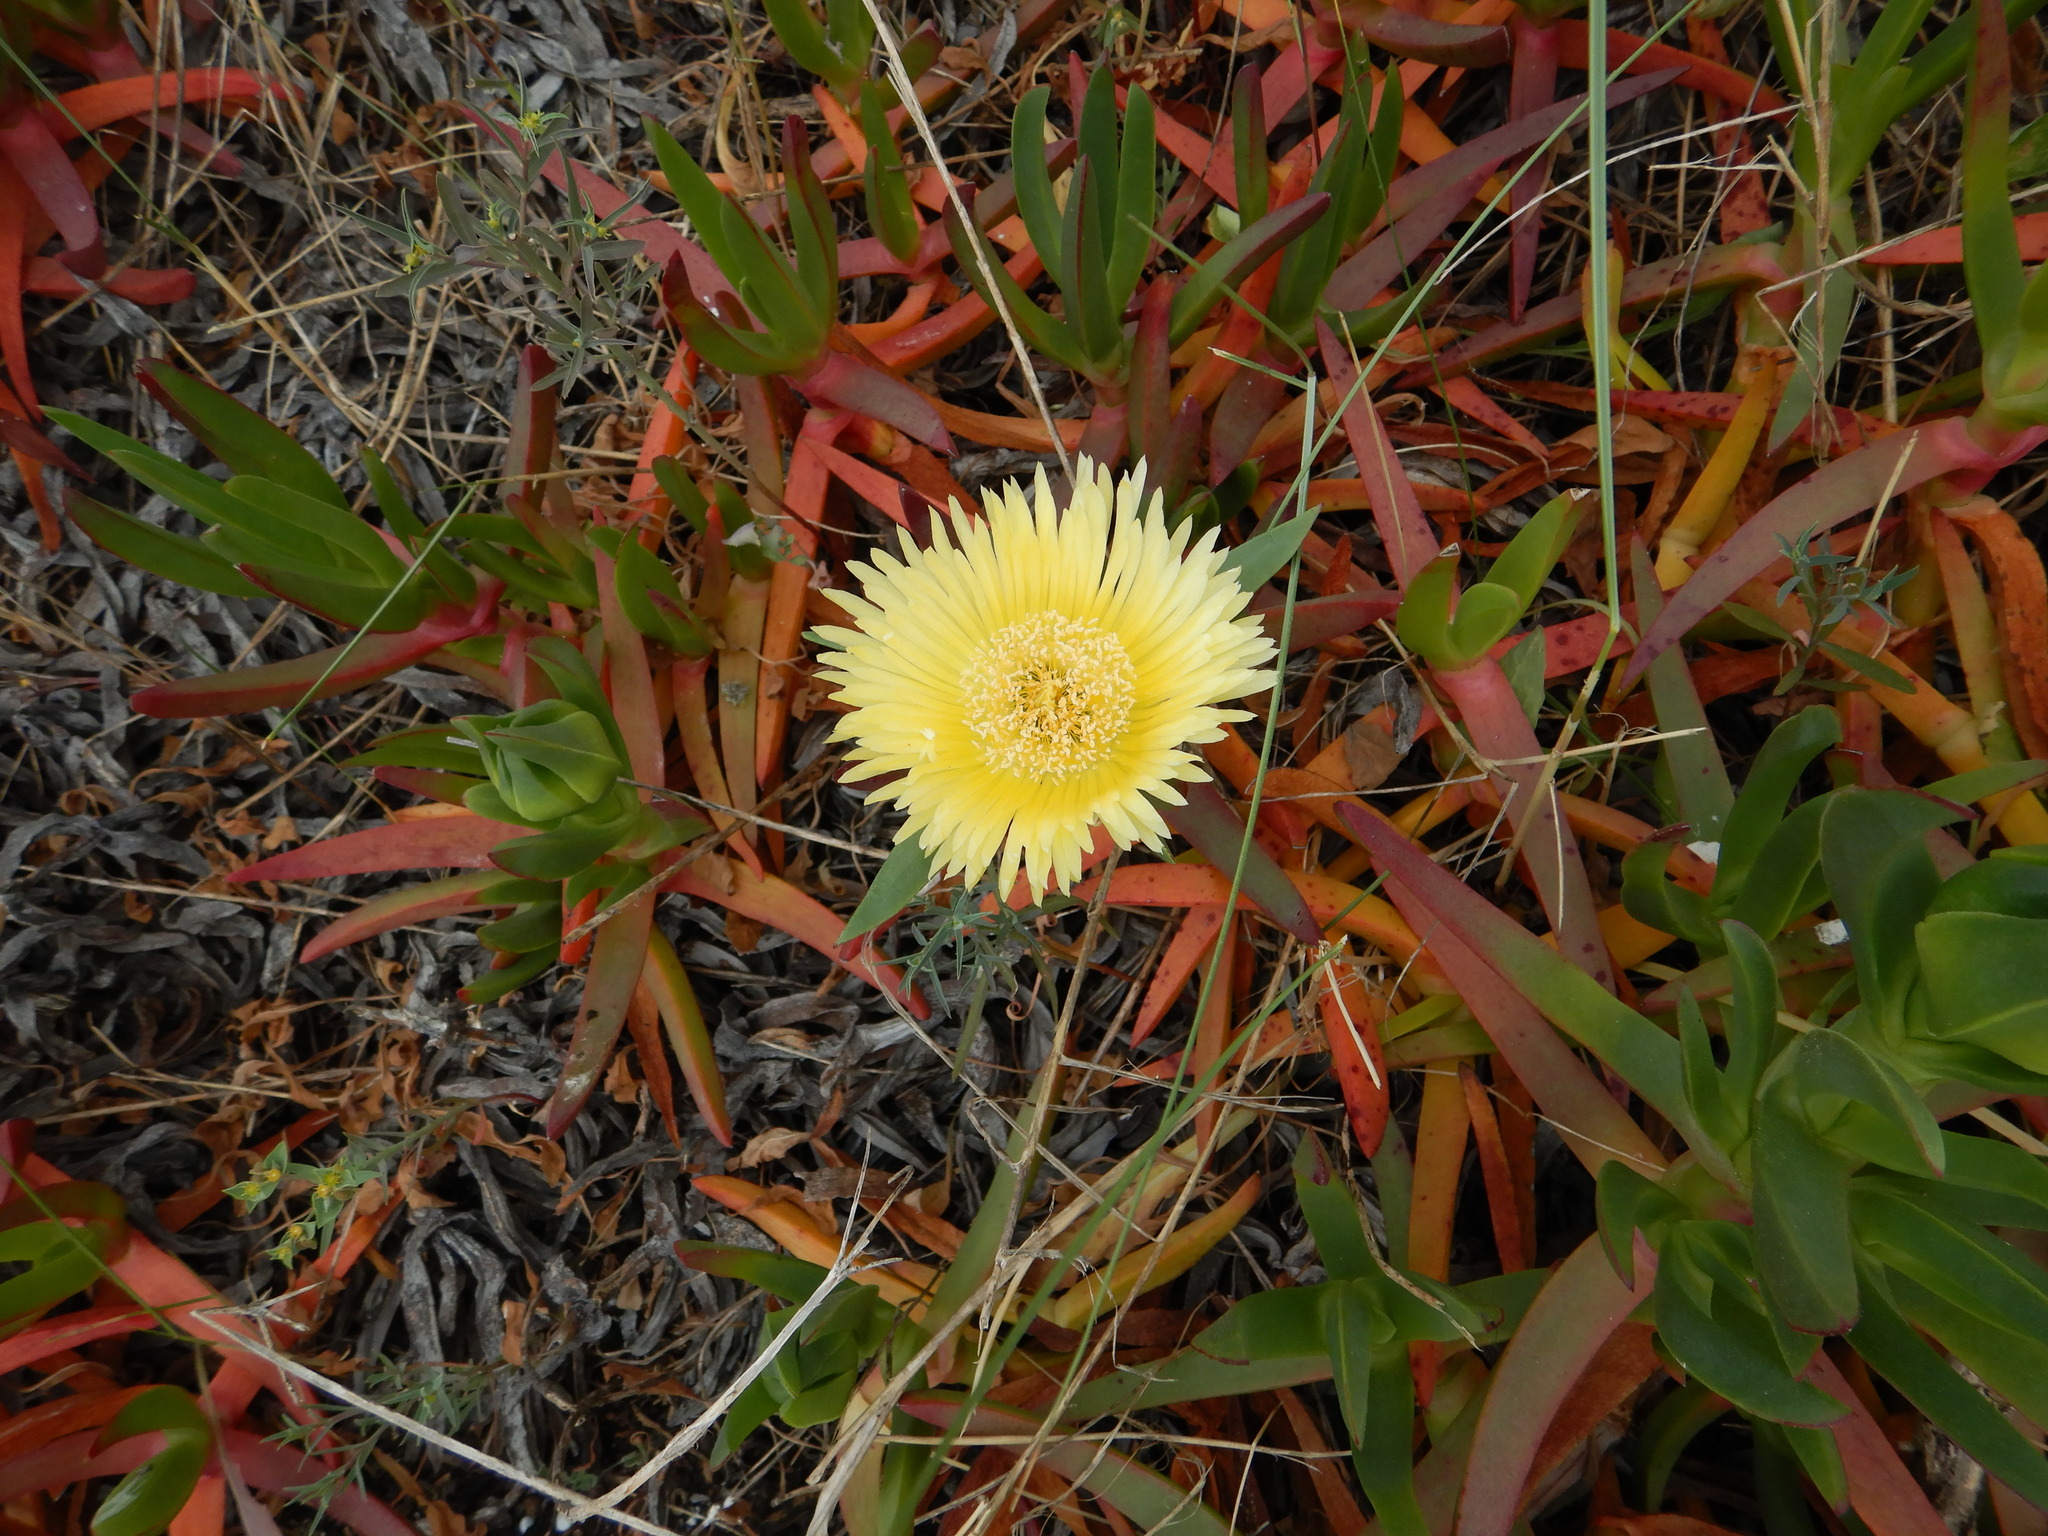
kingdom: Plantae
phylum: Tracheophyta
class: Magnoliopsida
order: Caryophyllales
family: Aizoaceae
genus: Carpobrotus
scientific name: Carpobrotus edulis
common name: Hottentot-fig
